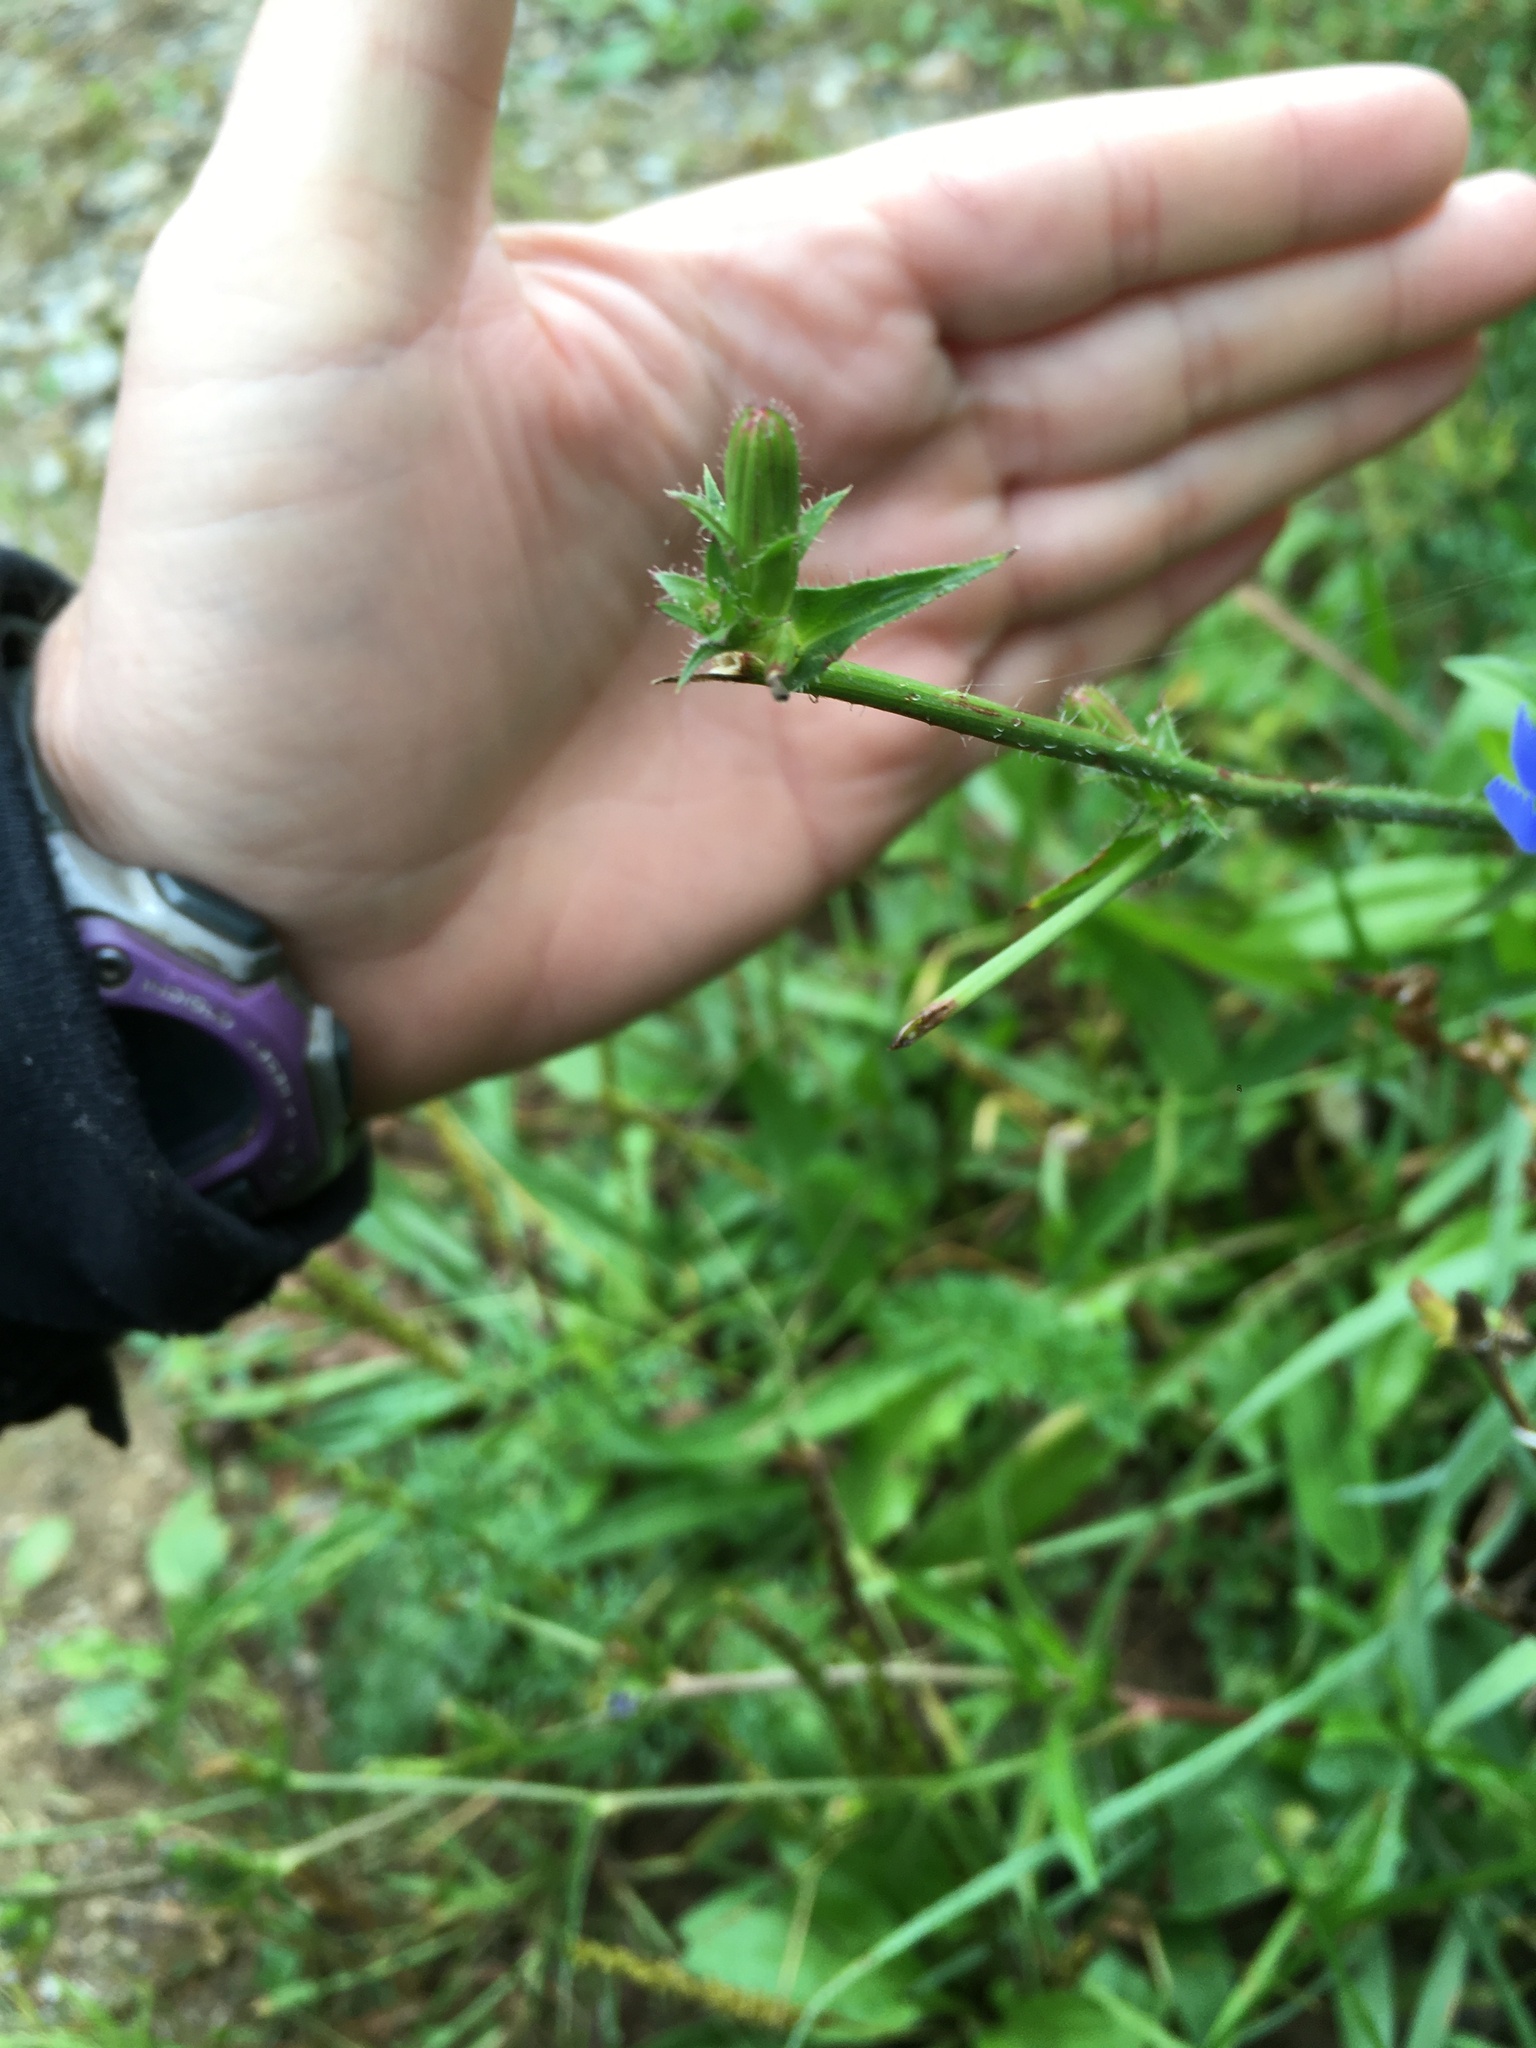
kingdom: Plantae
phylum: Tracheophyta
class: Magnoliopsida
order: Asterales
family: Asteraceae
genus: Cichorium
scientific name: Cichorium intybus
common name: Chicory
